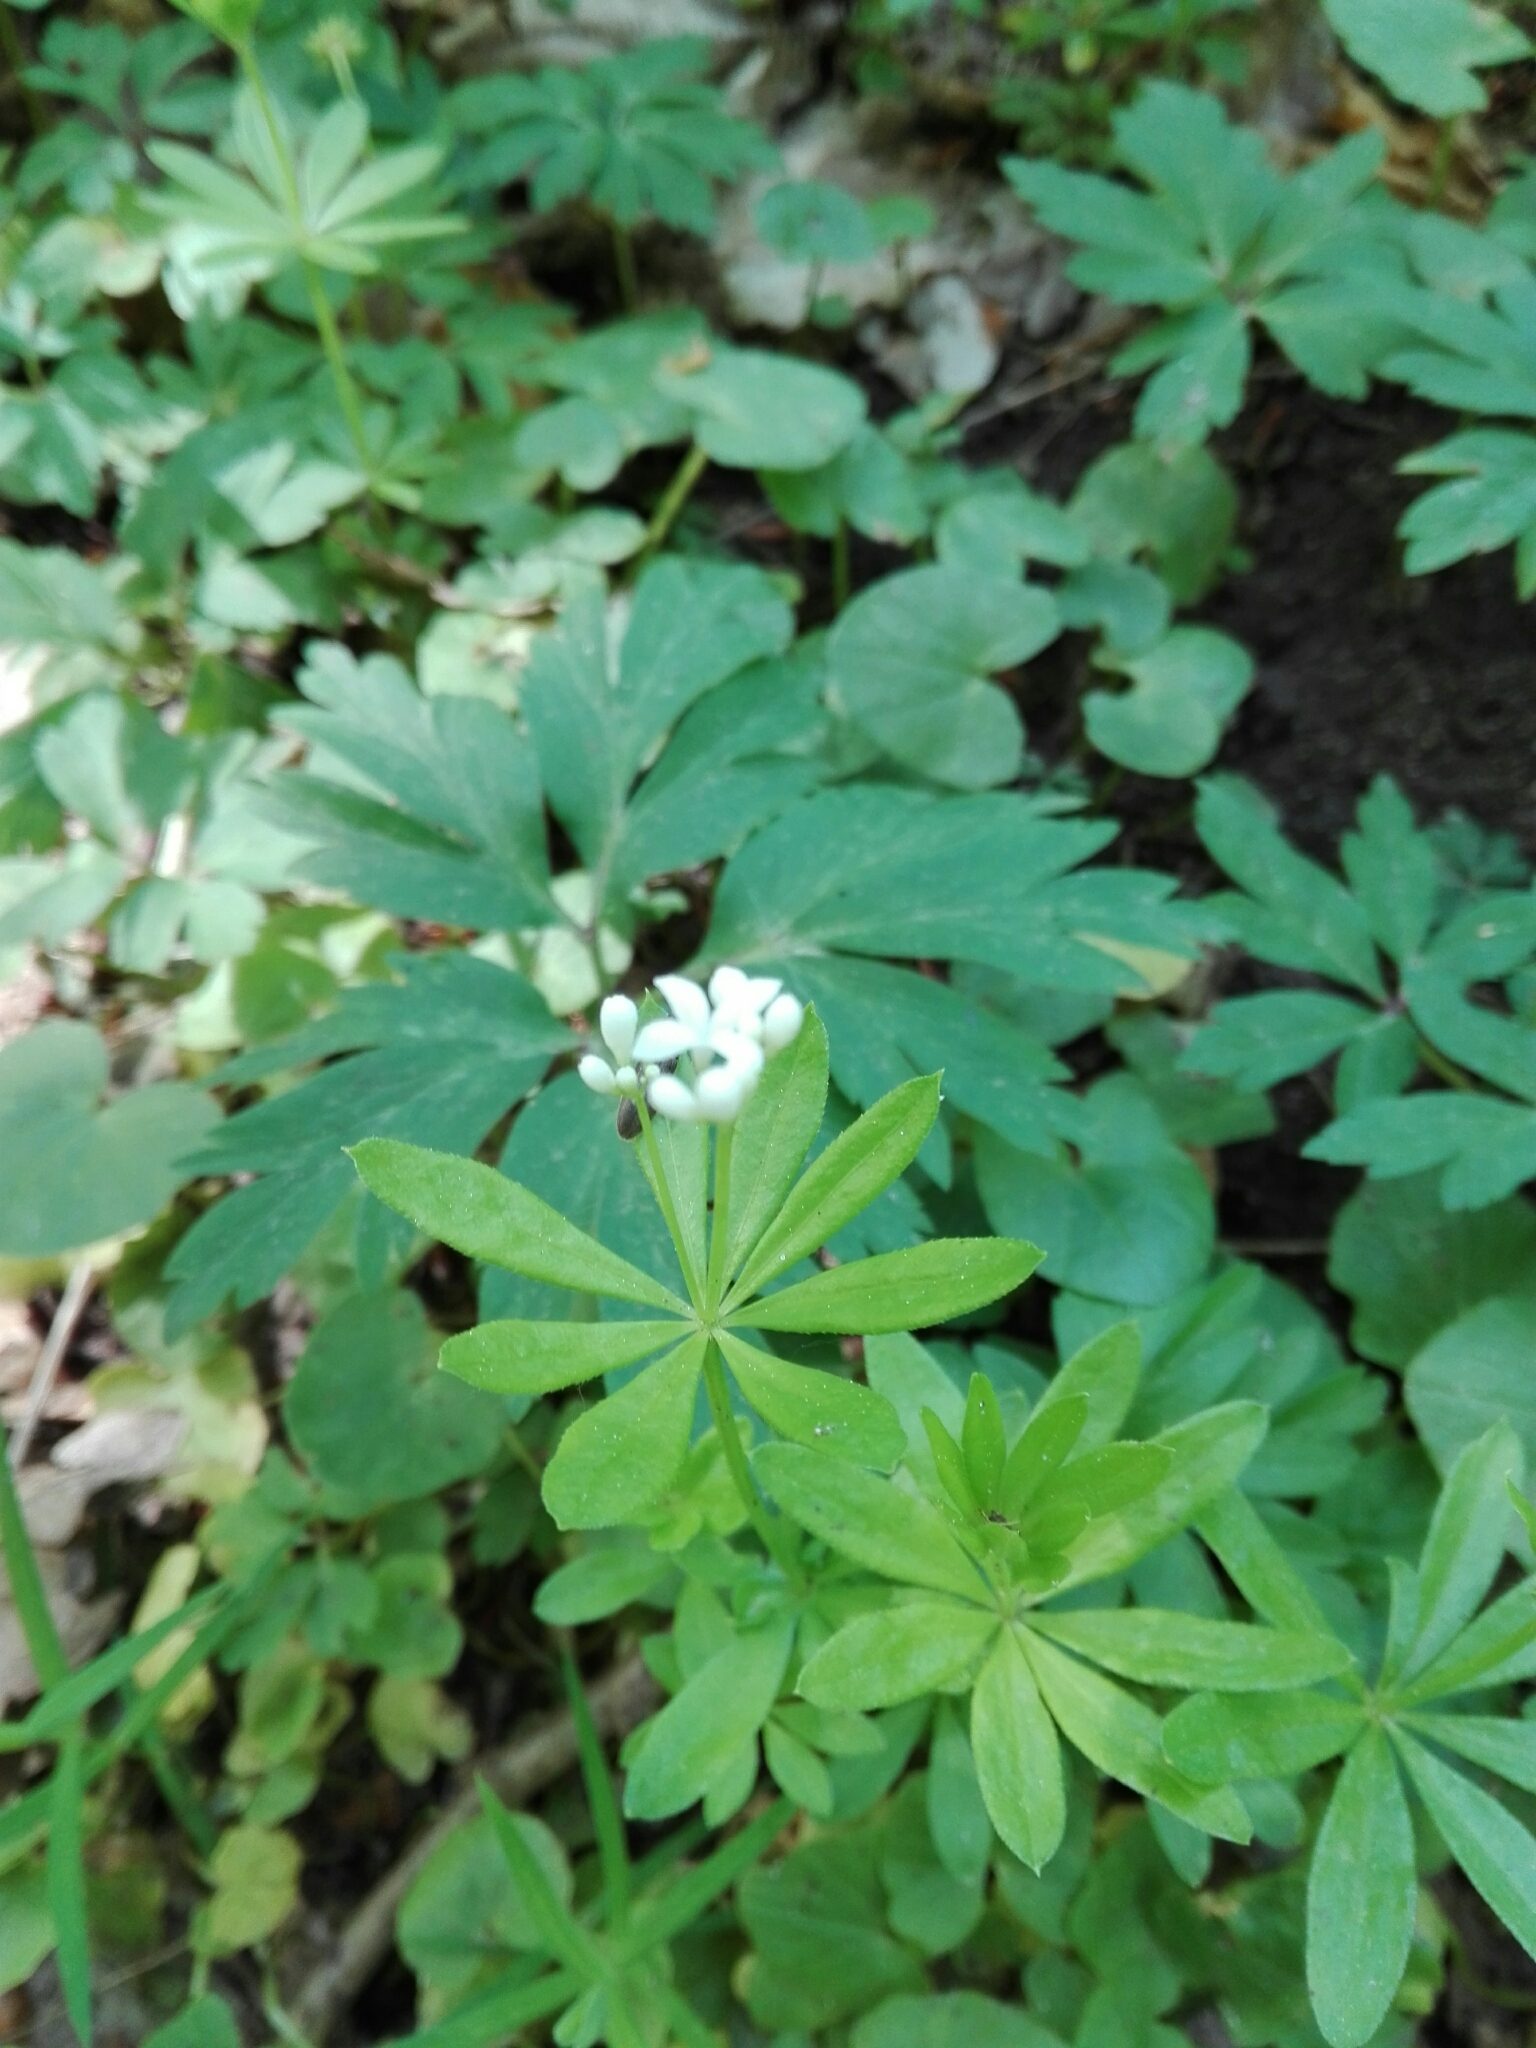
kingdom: Plantae
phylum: Tracheophyta
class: Magnoliopsida
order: Gentianales
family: Rubiaceae
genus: Galium
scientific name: Galium odoratum
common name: Sweet woodruff
